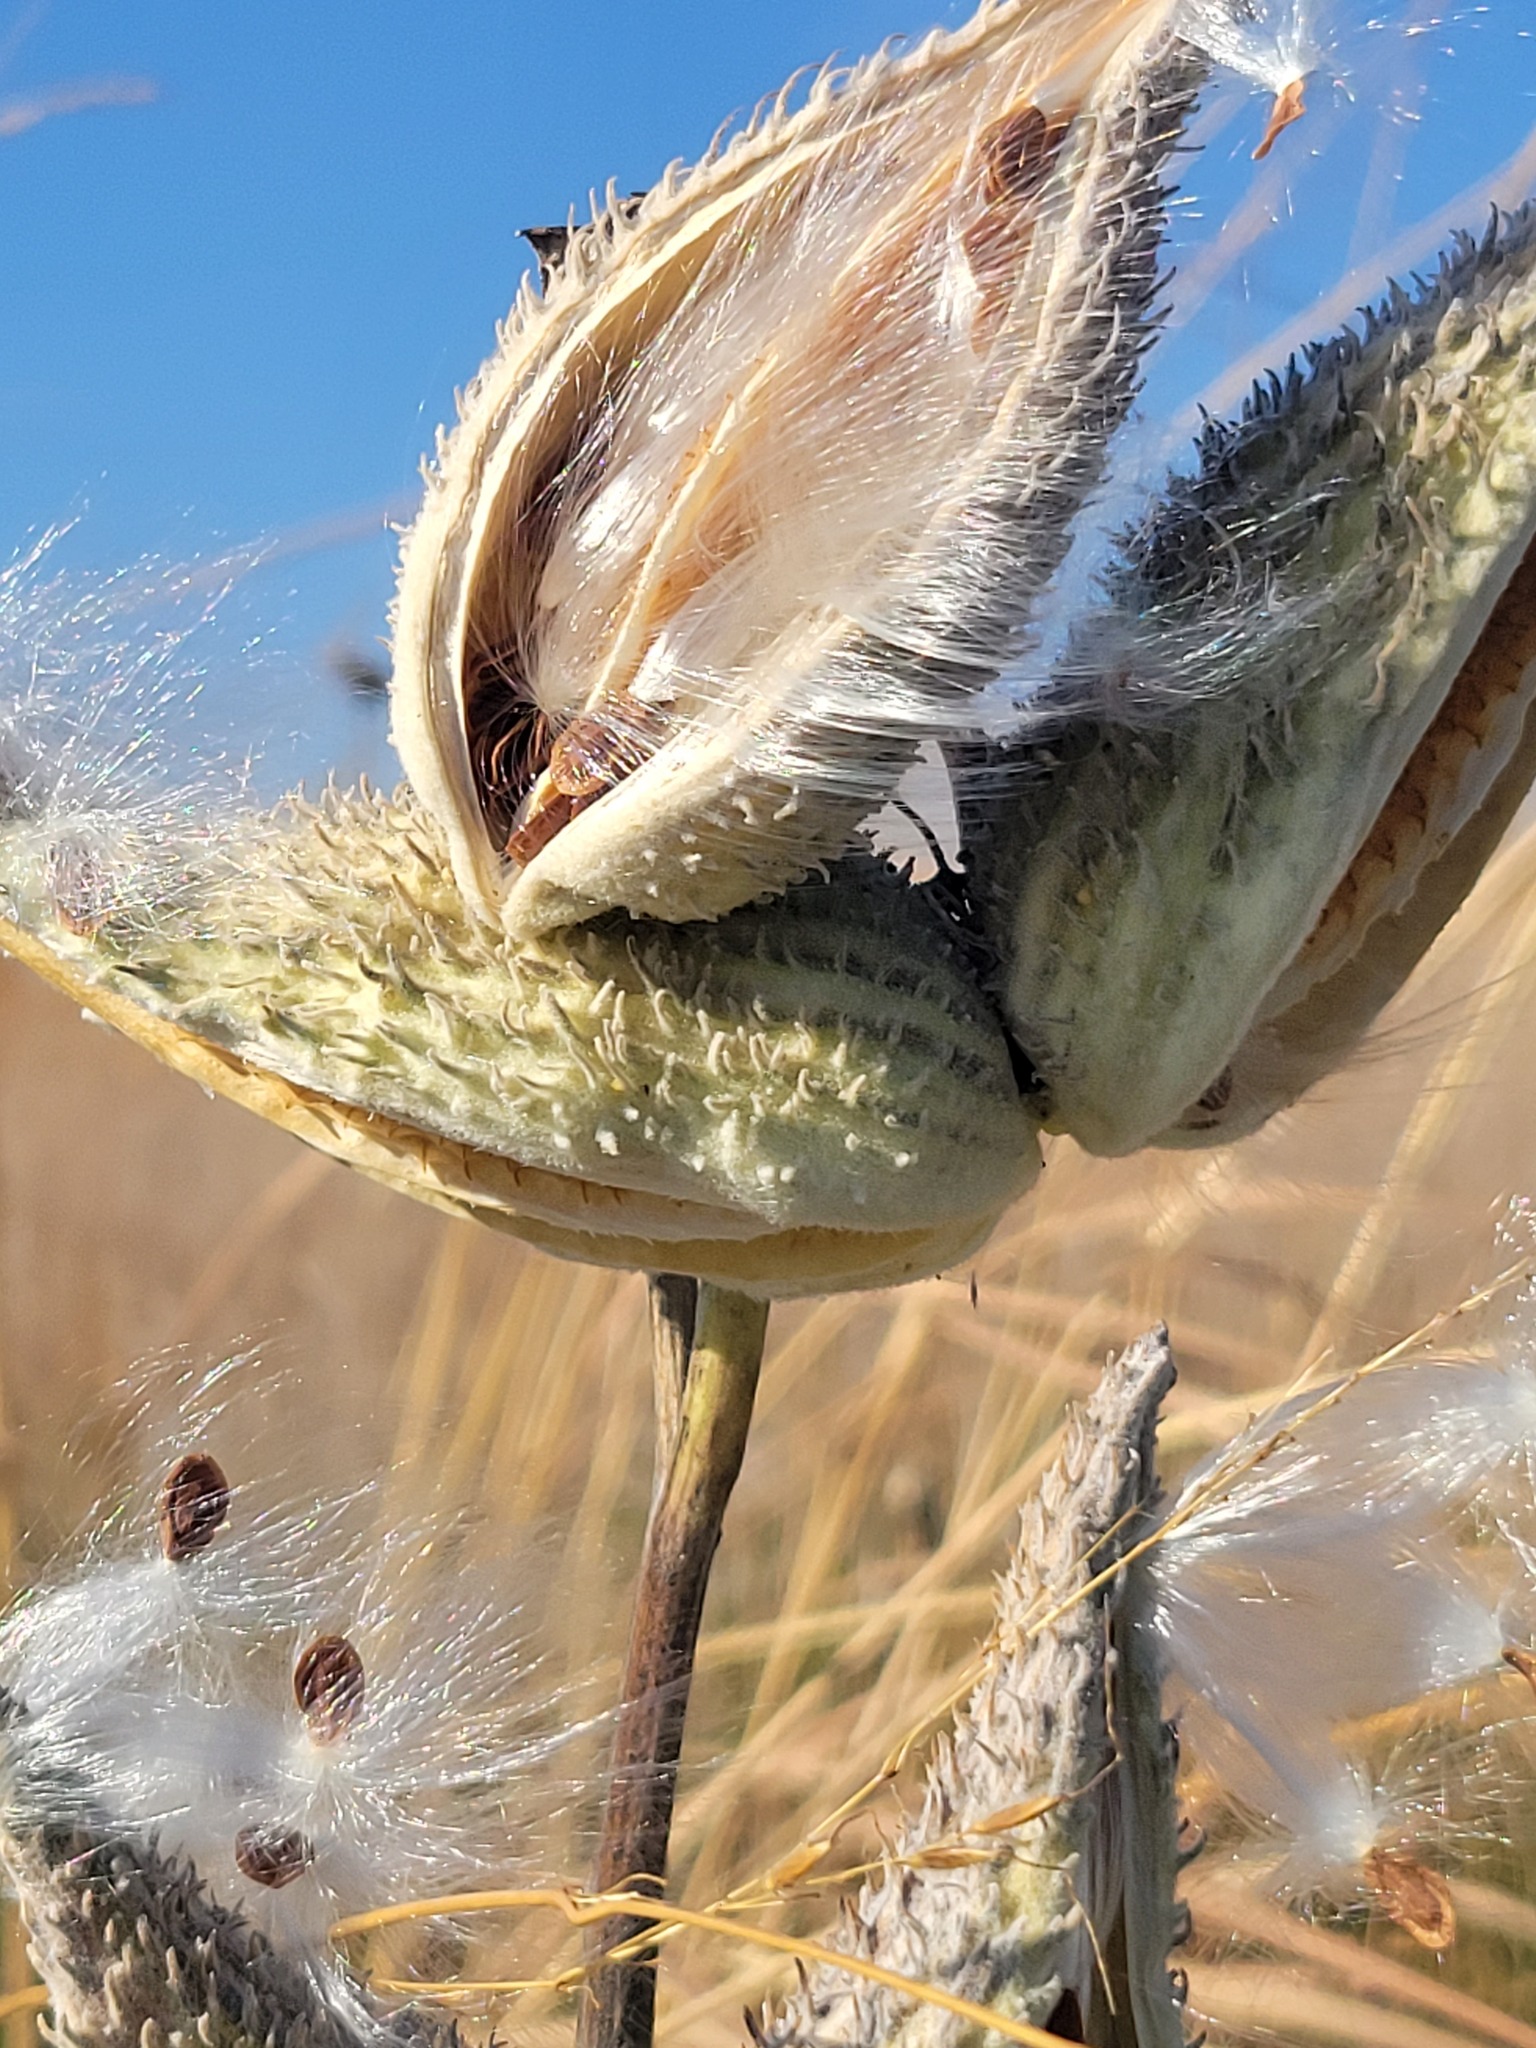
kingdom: Plantae
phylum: Tracheophyta
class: Magnoliopsida
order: Gentianales
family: Apocynaceae
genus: Asclepias
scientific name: Asclepias syriaca
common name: Common milkweed
